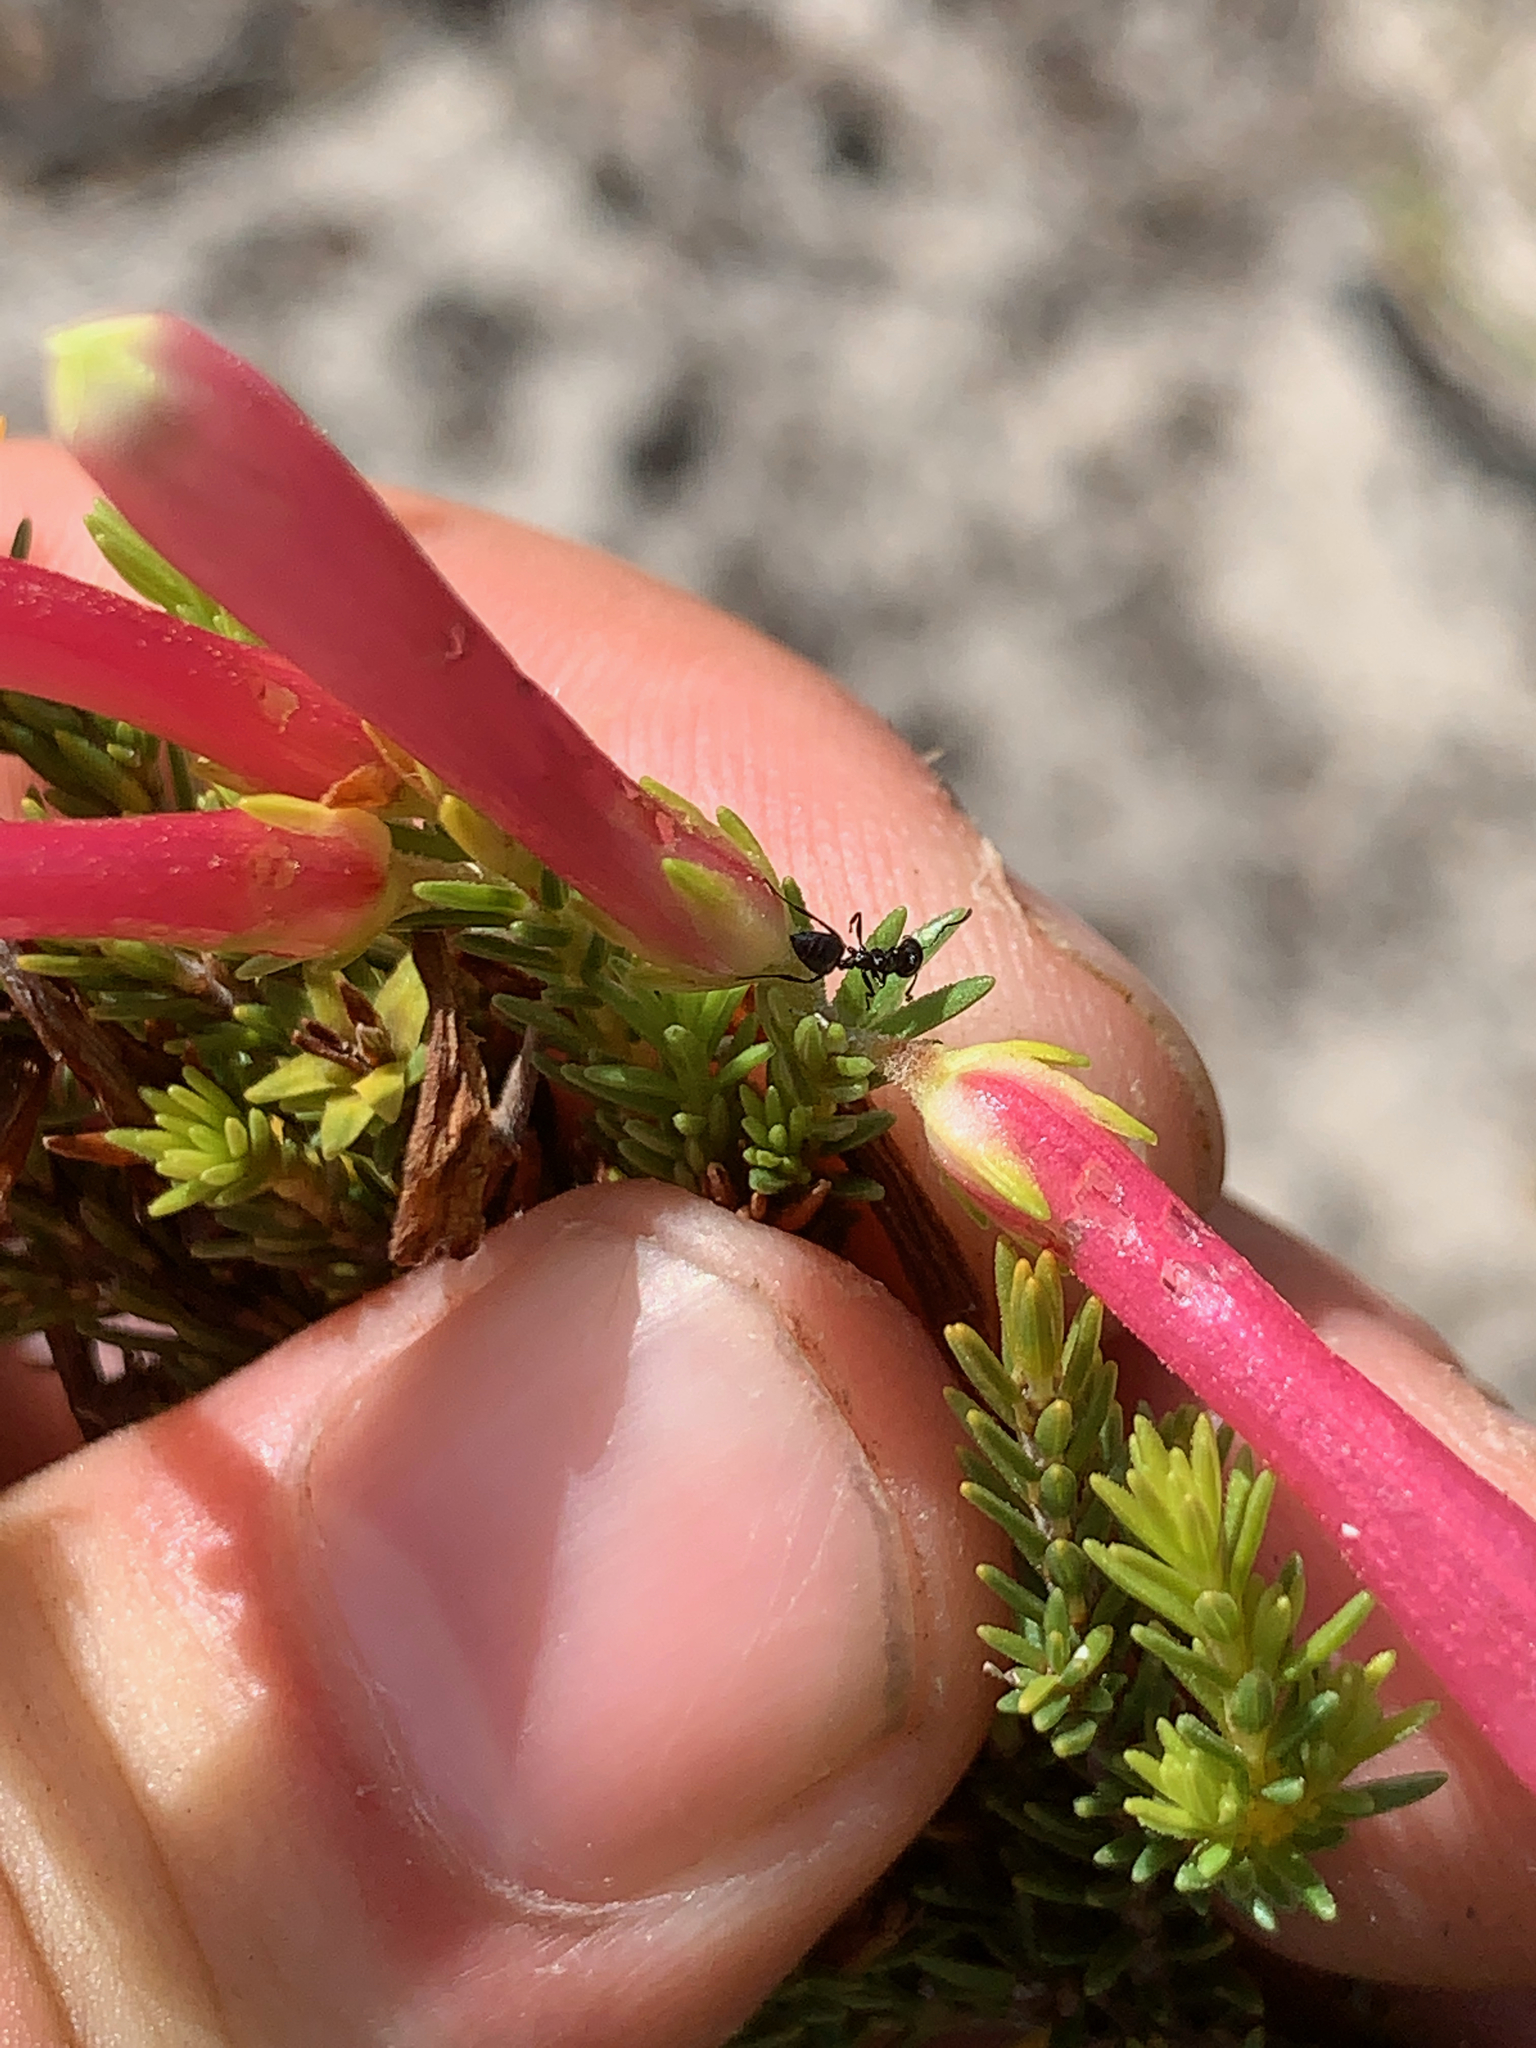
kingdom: Plantae
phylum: Tracheophyta
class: Magnoliopsida
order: Ericales
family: Ericaceae
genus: Erica
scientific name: Erica discolor
